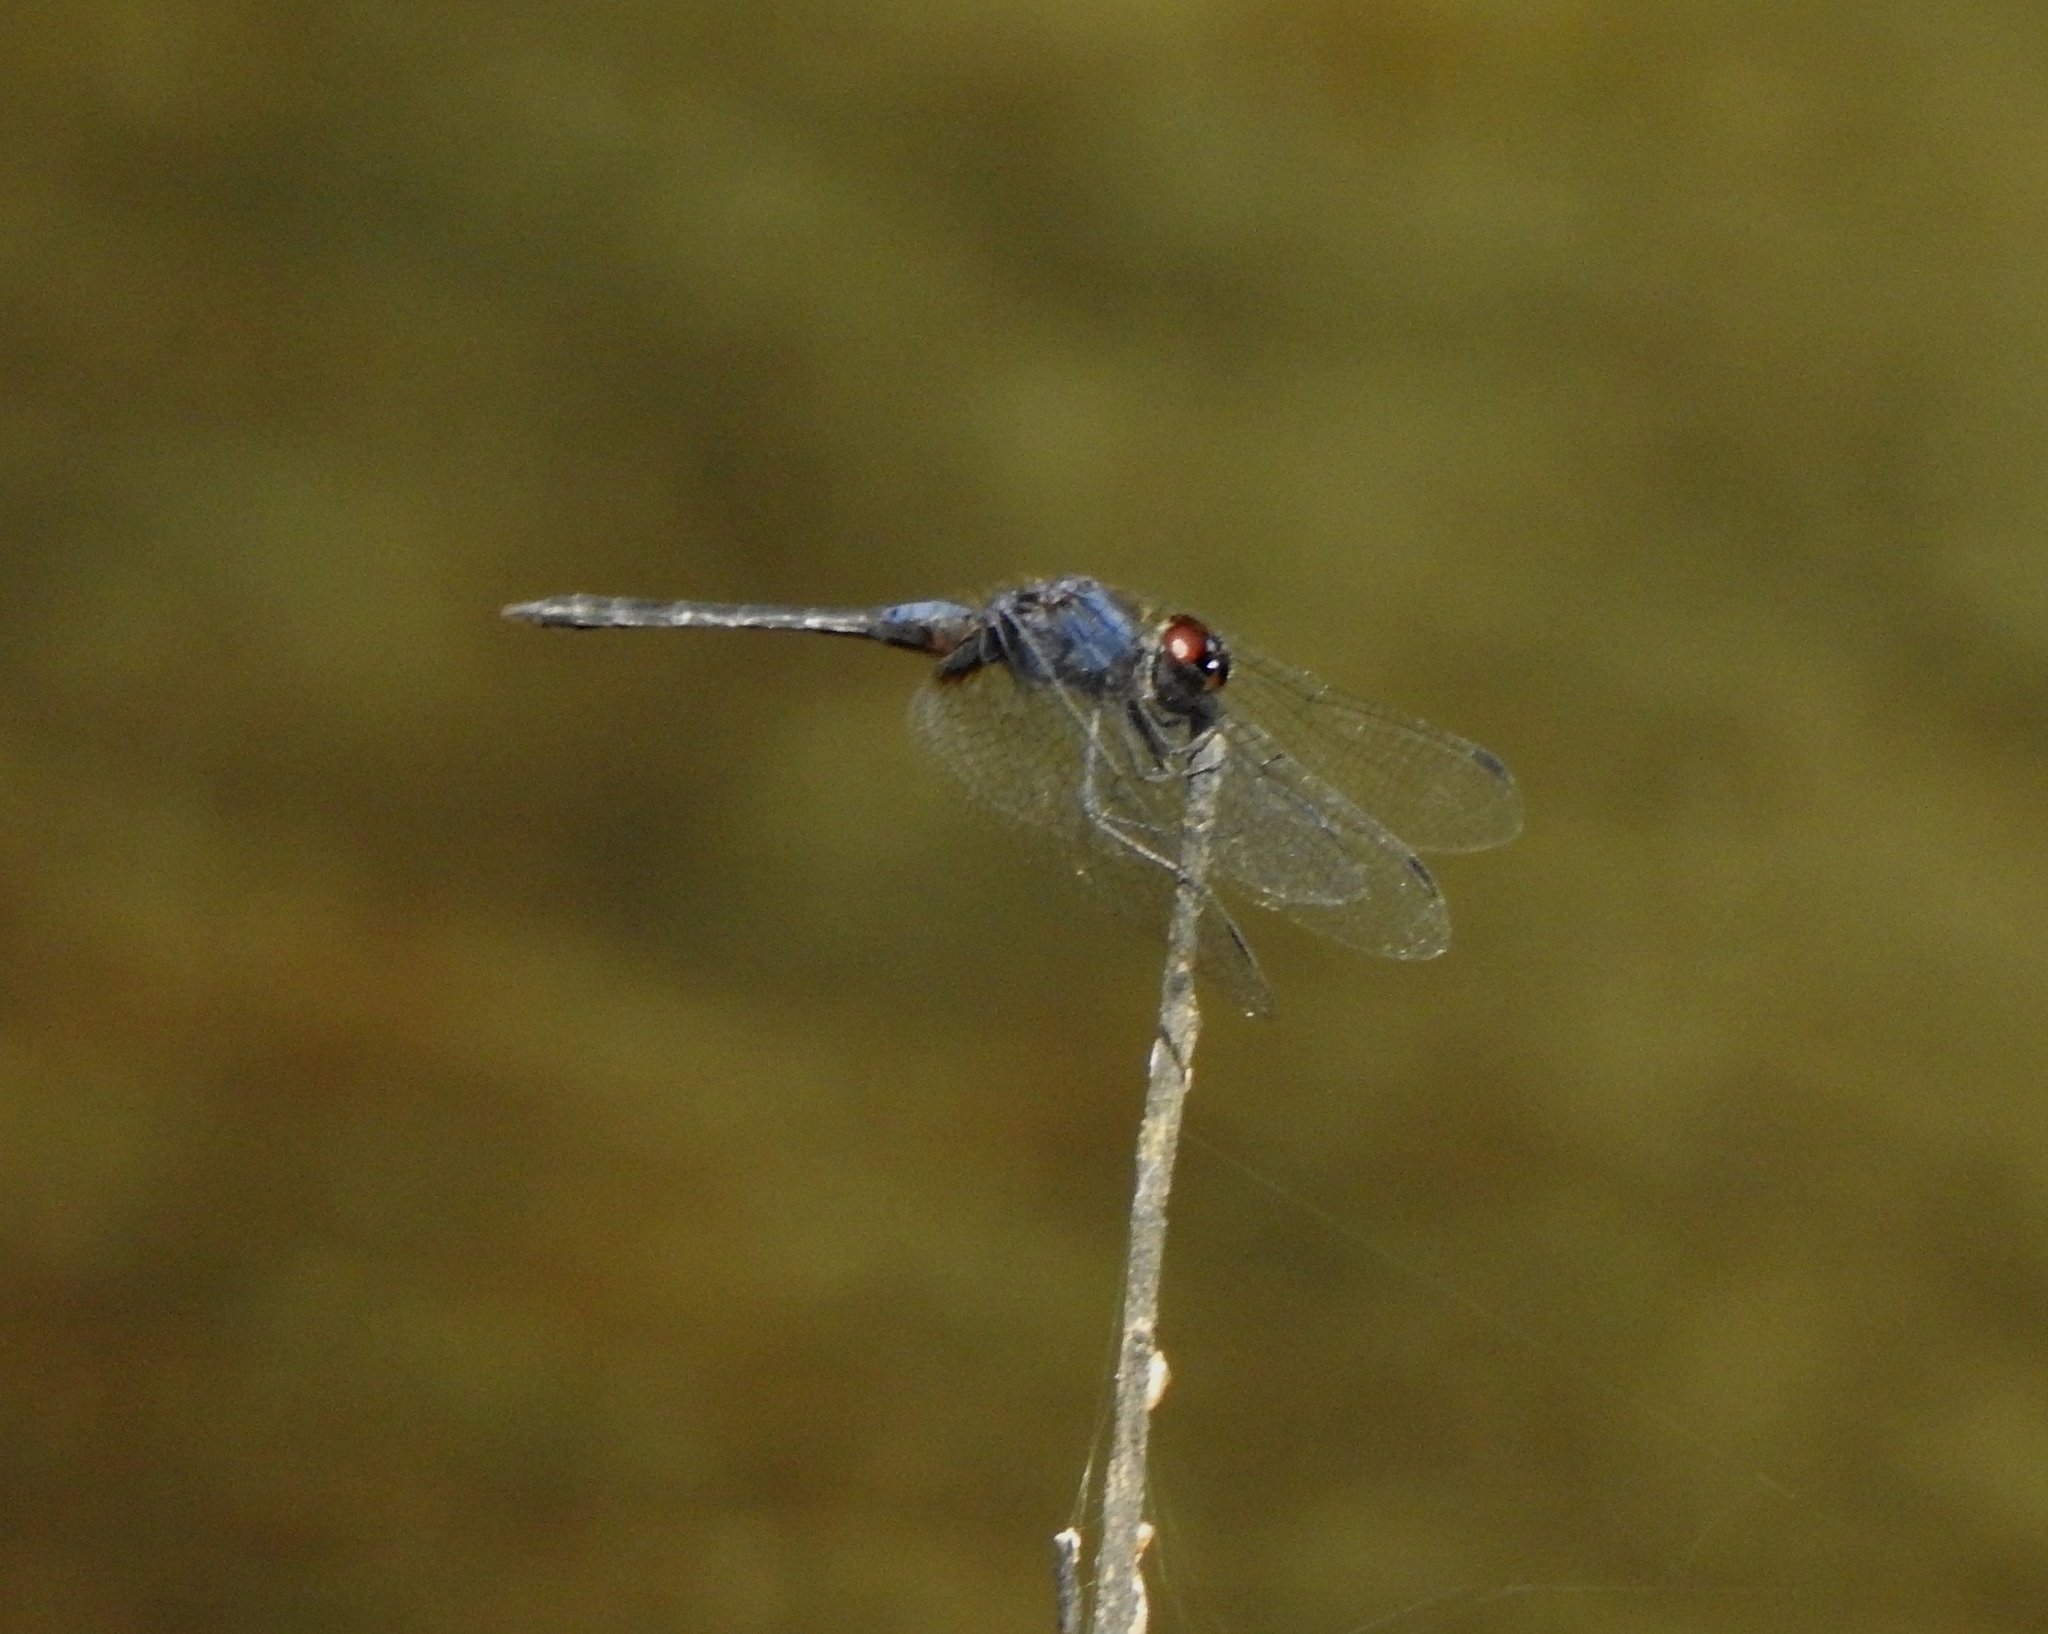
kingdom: Animalia
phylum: Arthropoda
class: Insecta
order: Odonata
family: Libellulidae
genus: Trithemis
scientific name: Trithemis festiva
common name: Indigo dropwing
